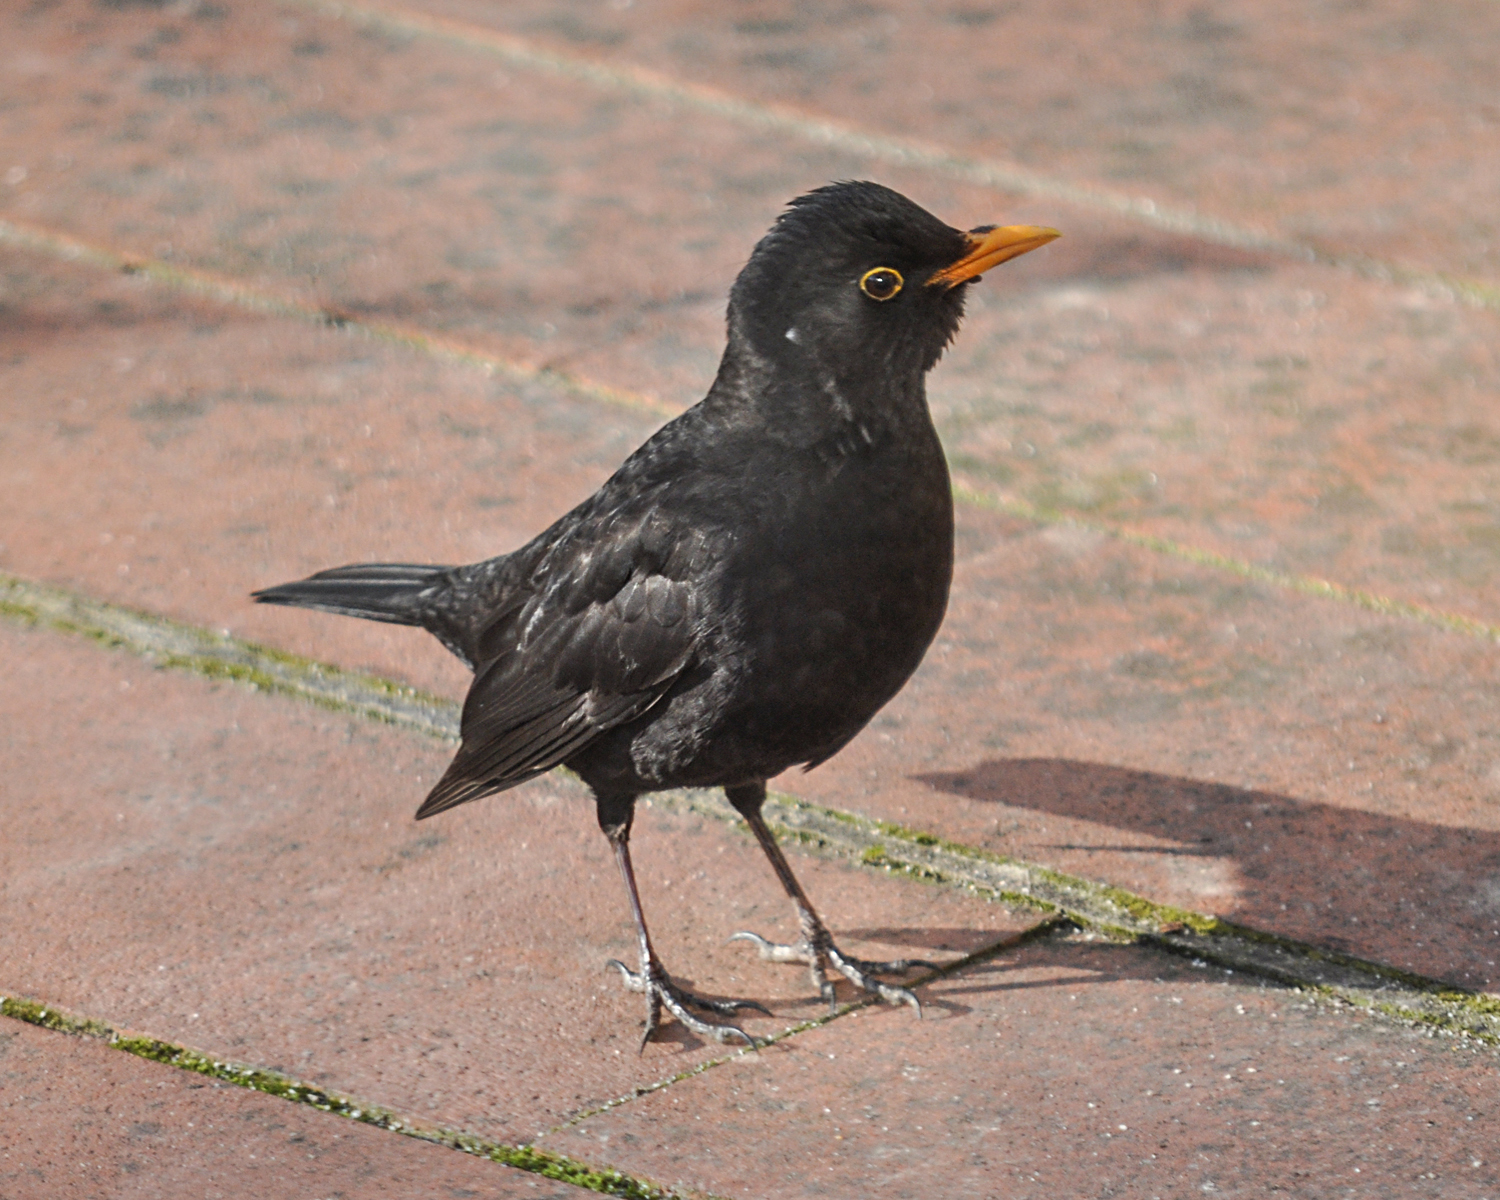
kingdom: Animalia
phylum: Chordata
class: Aves
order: Passeriformes
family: Turdidae
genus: Turdus
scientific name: Turdus merula
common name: Common blackbird
